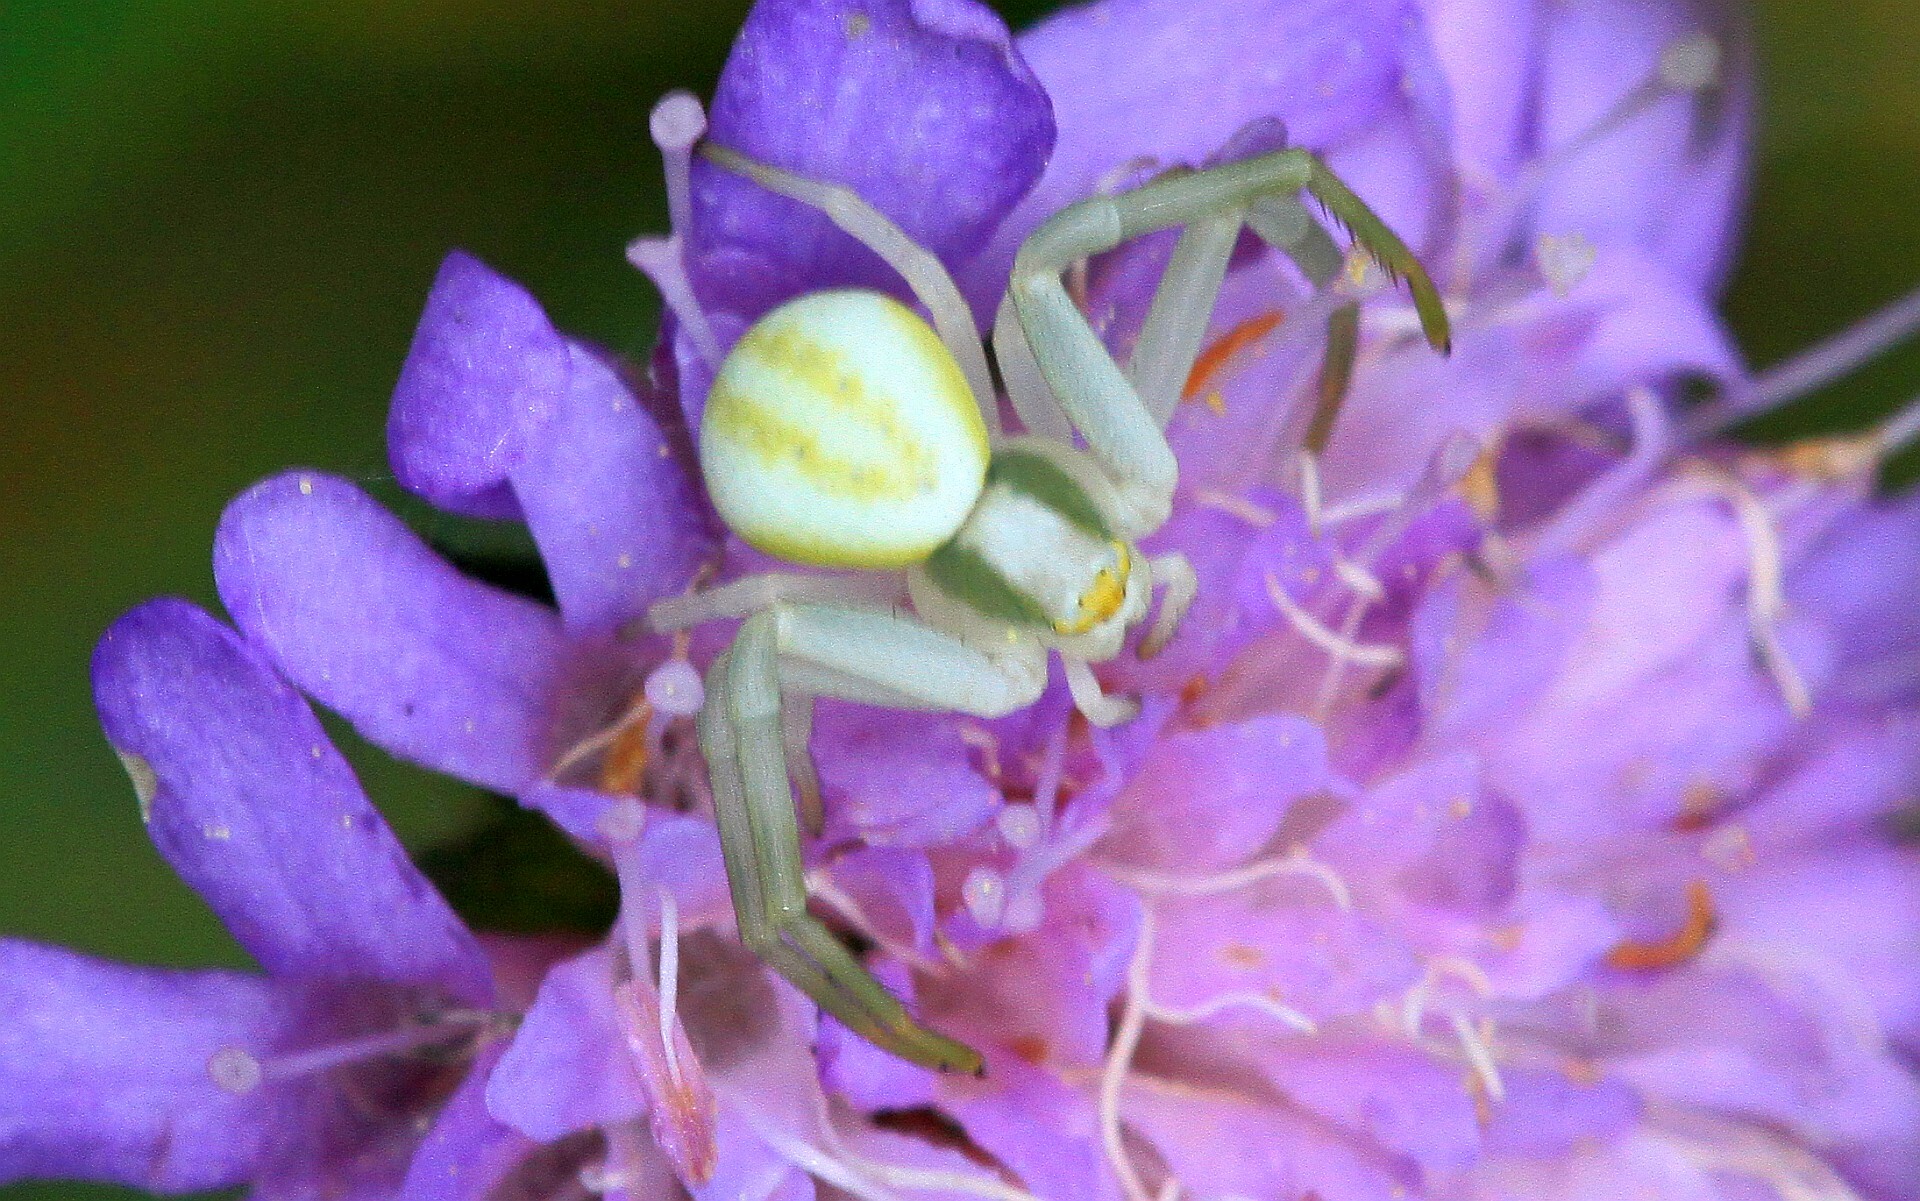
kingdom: Animalia
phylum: Arthropoda
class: Arachnida
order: Araneae
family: Thomisidae
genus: Misumena
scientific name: Misumena vatia
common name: Goldenrod crab spider
